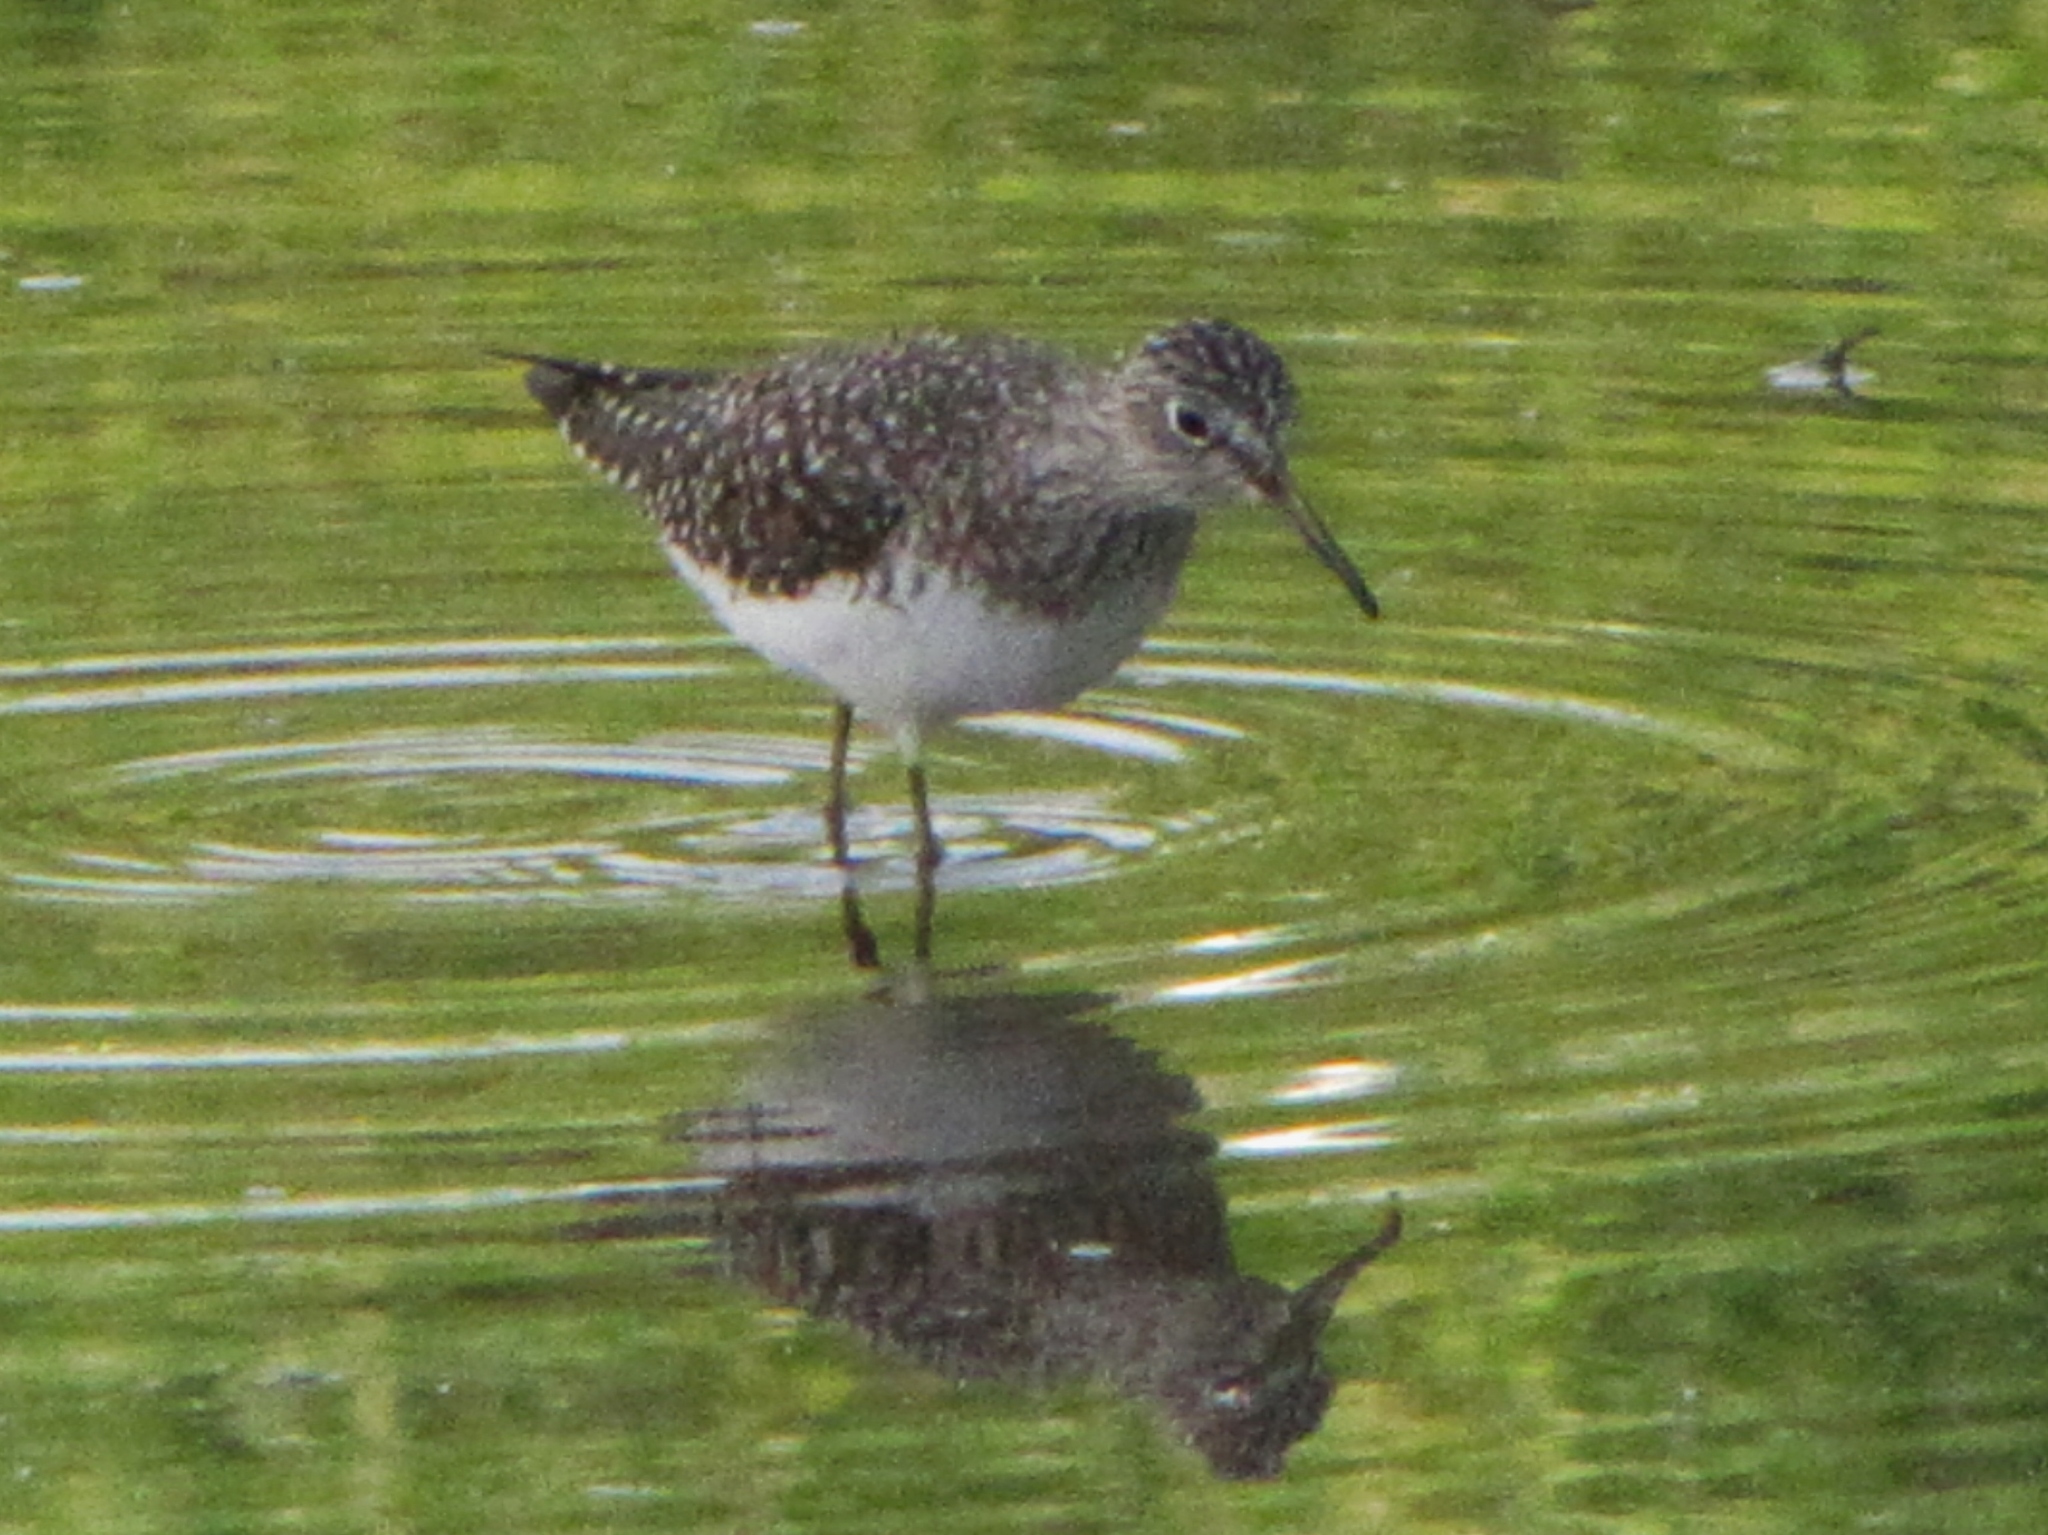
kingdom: Animalia
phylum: Chordata
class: Aves
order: Charadriiformes
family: Scolopacidae
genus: Tringa
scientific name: Tringa solitaria
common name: Solitary sandpiper
